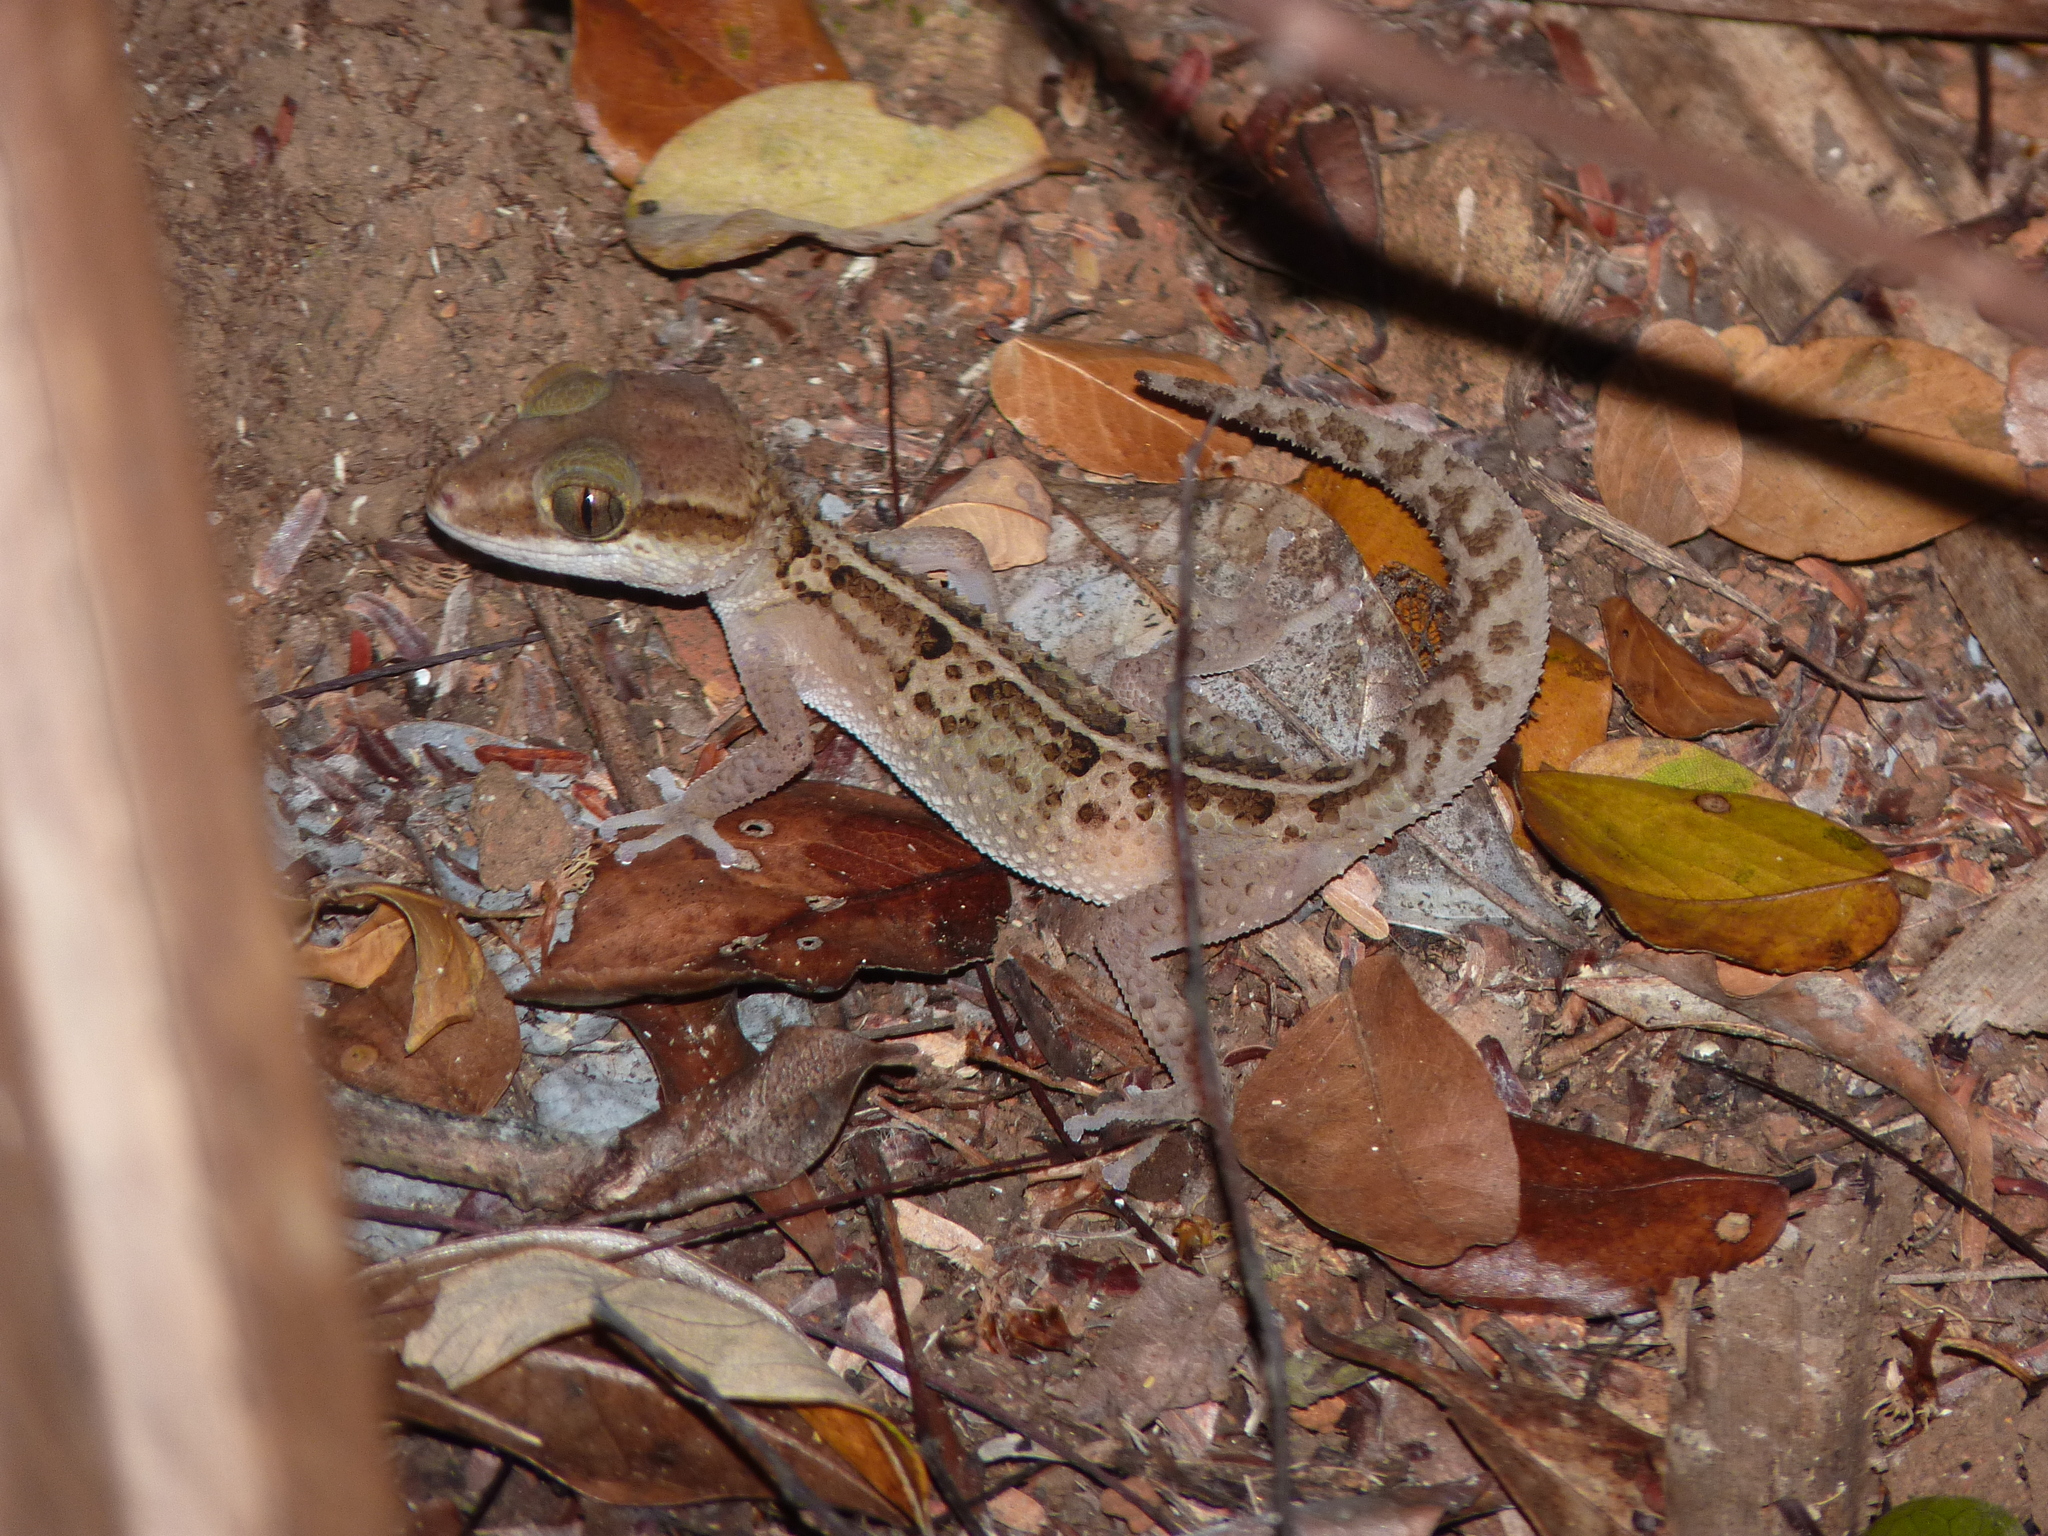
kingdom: Animalia
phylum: Chordata
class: Squamata
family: Gekkonidae
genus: Paroedura
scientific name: Paroedura stumpffi
